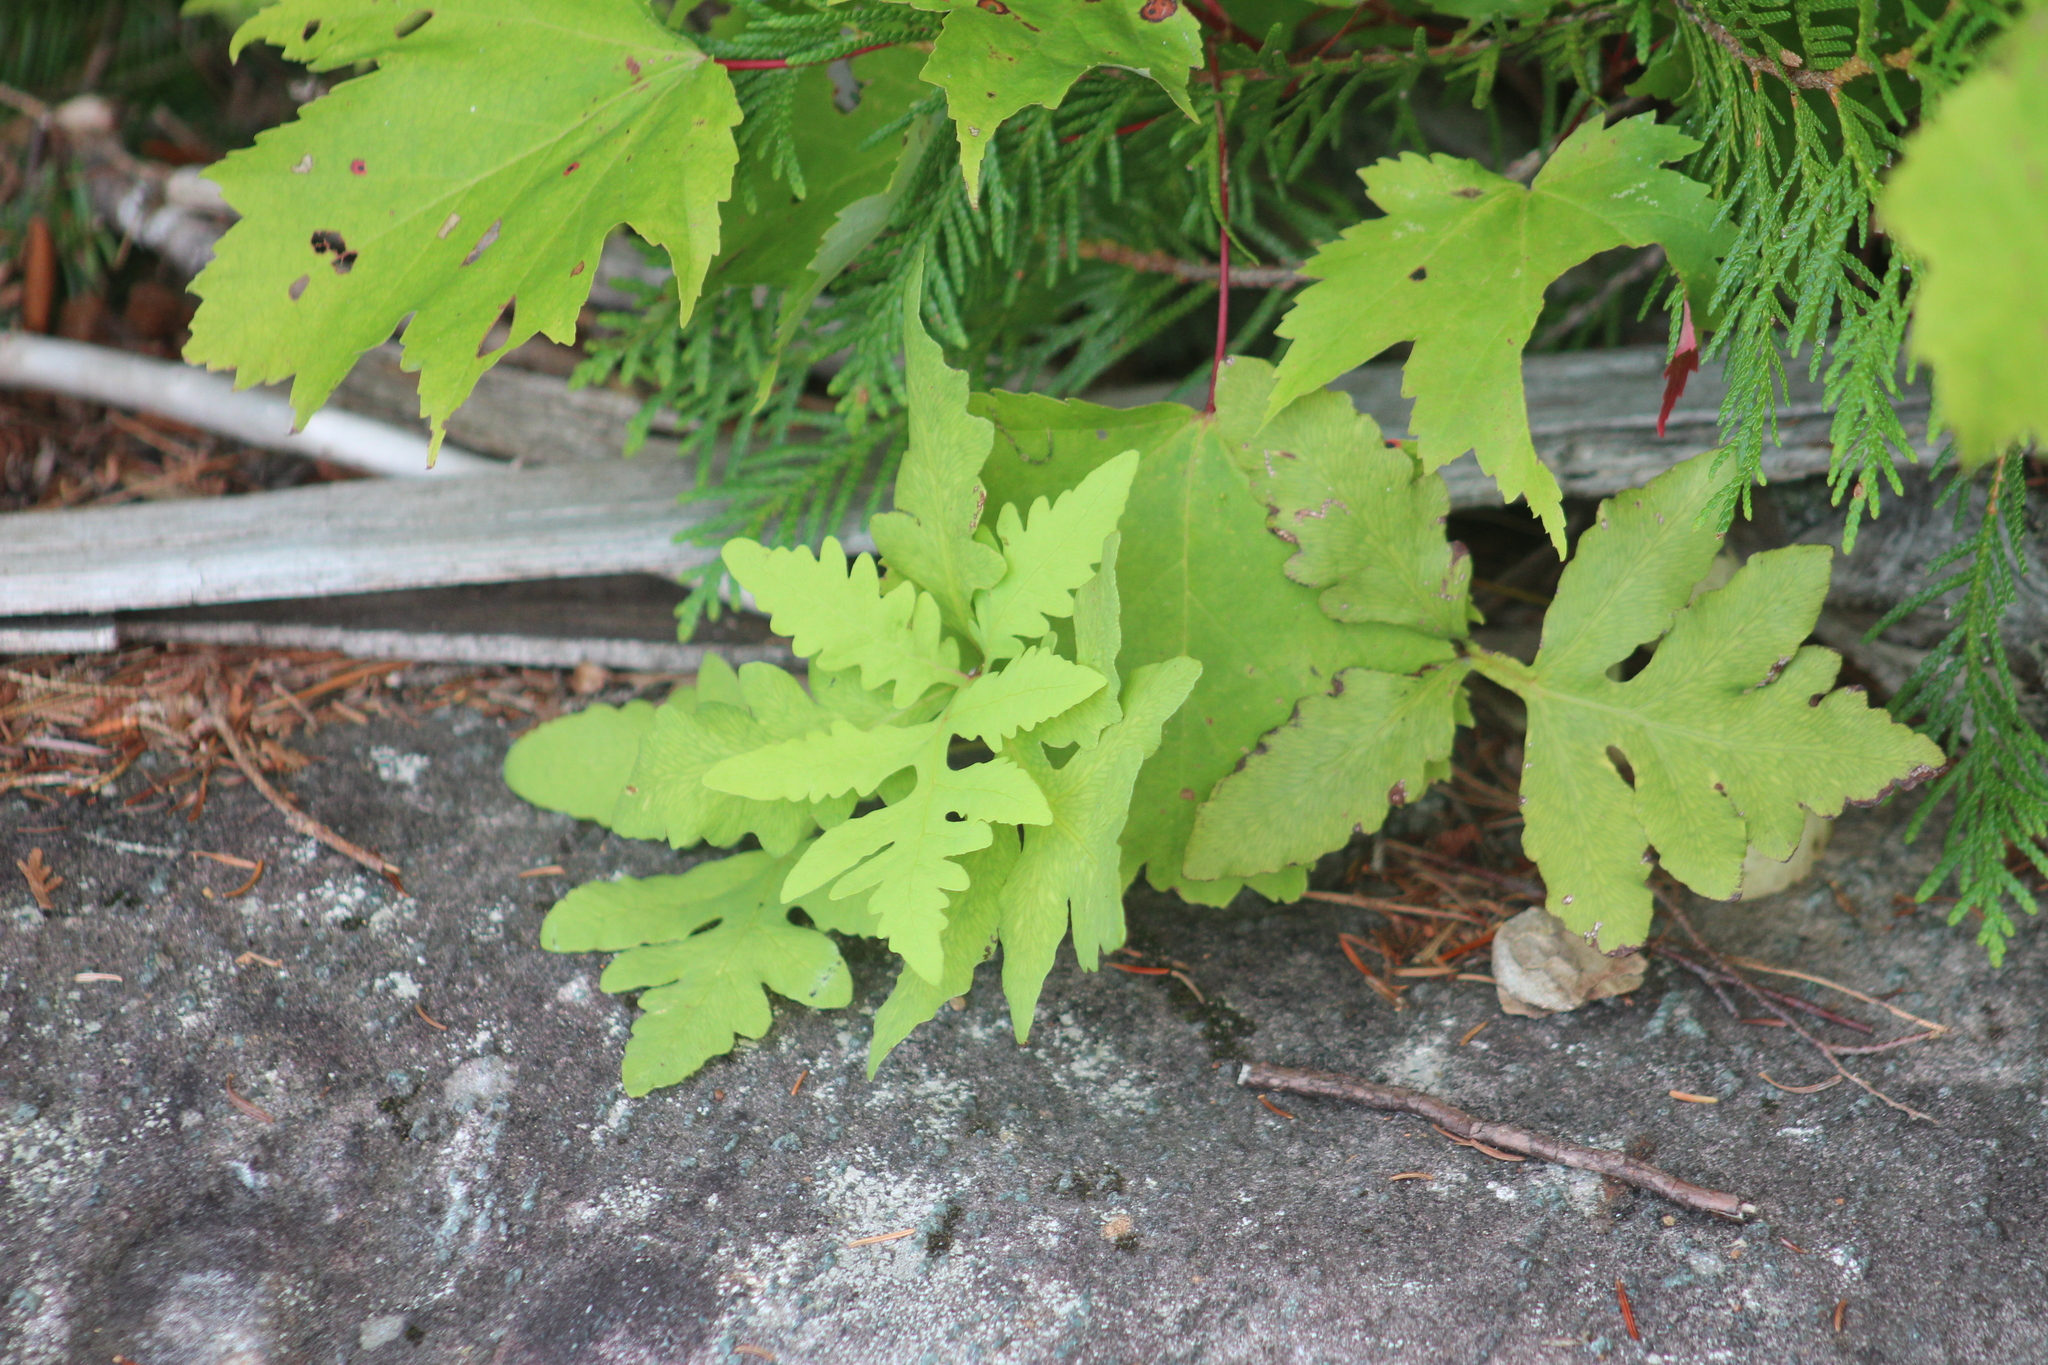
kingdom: Plantae
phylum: Tracheophyta
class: Polypodiopsida
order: Polypodiales
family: Onocleaceae
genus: Onoclea
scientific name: Onoclea sensibilis
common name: Sensitive fern
